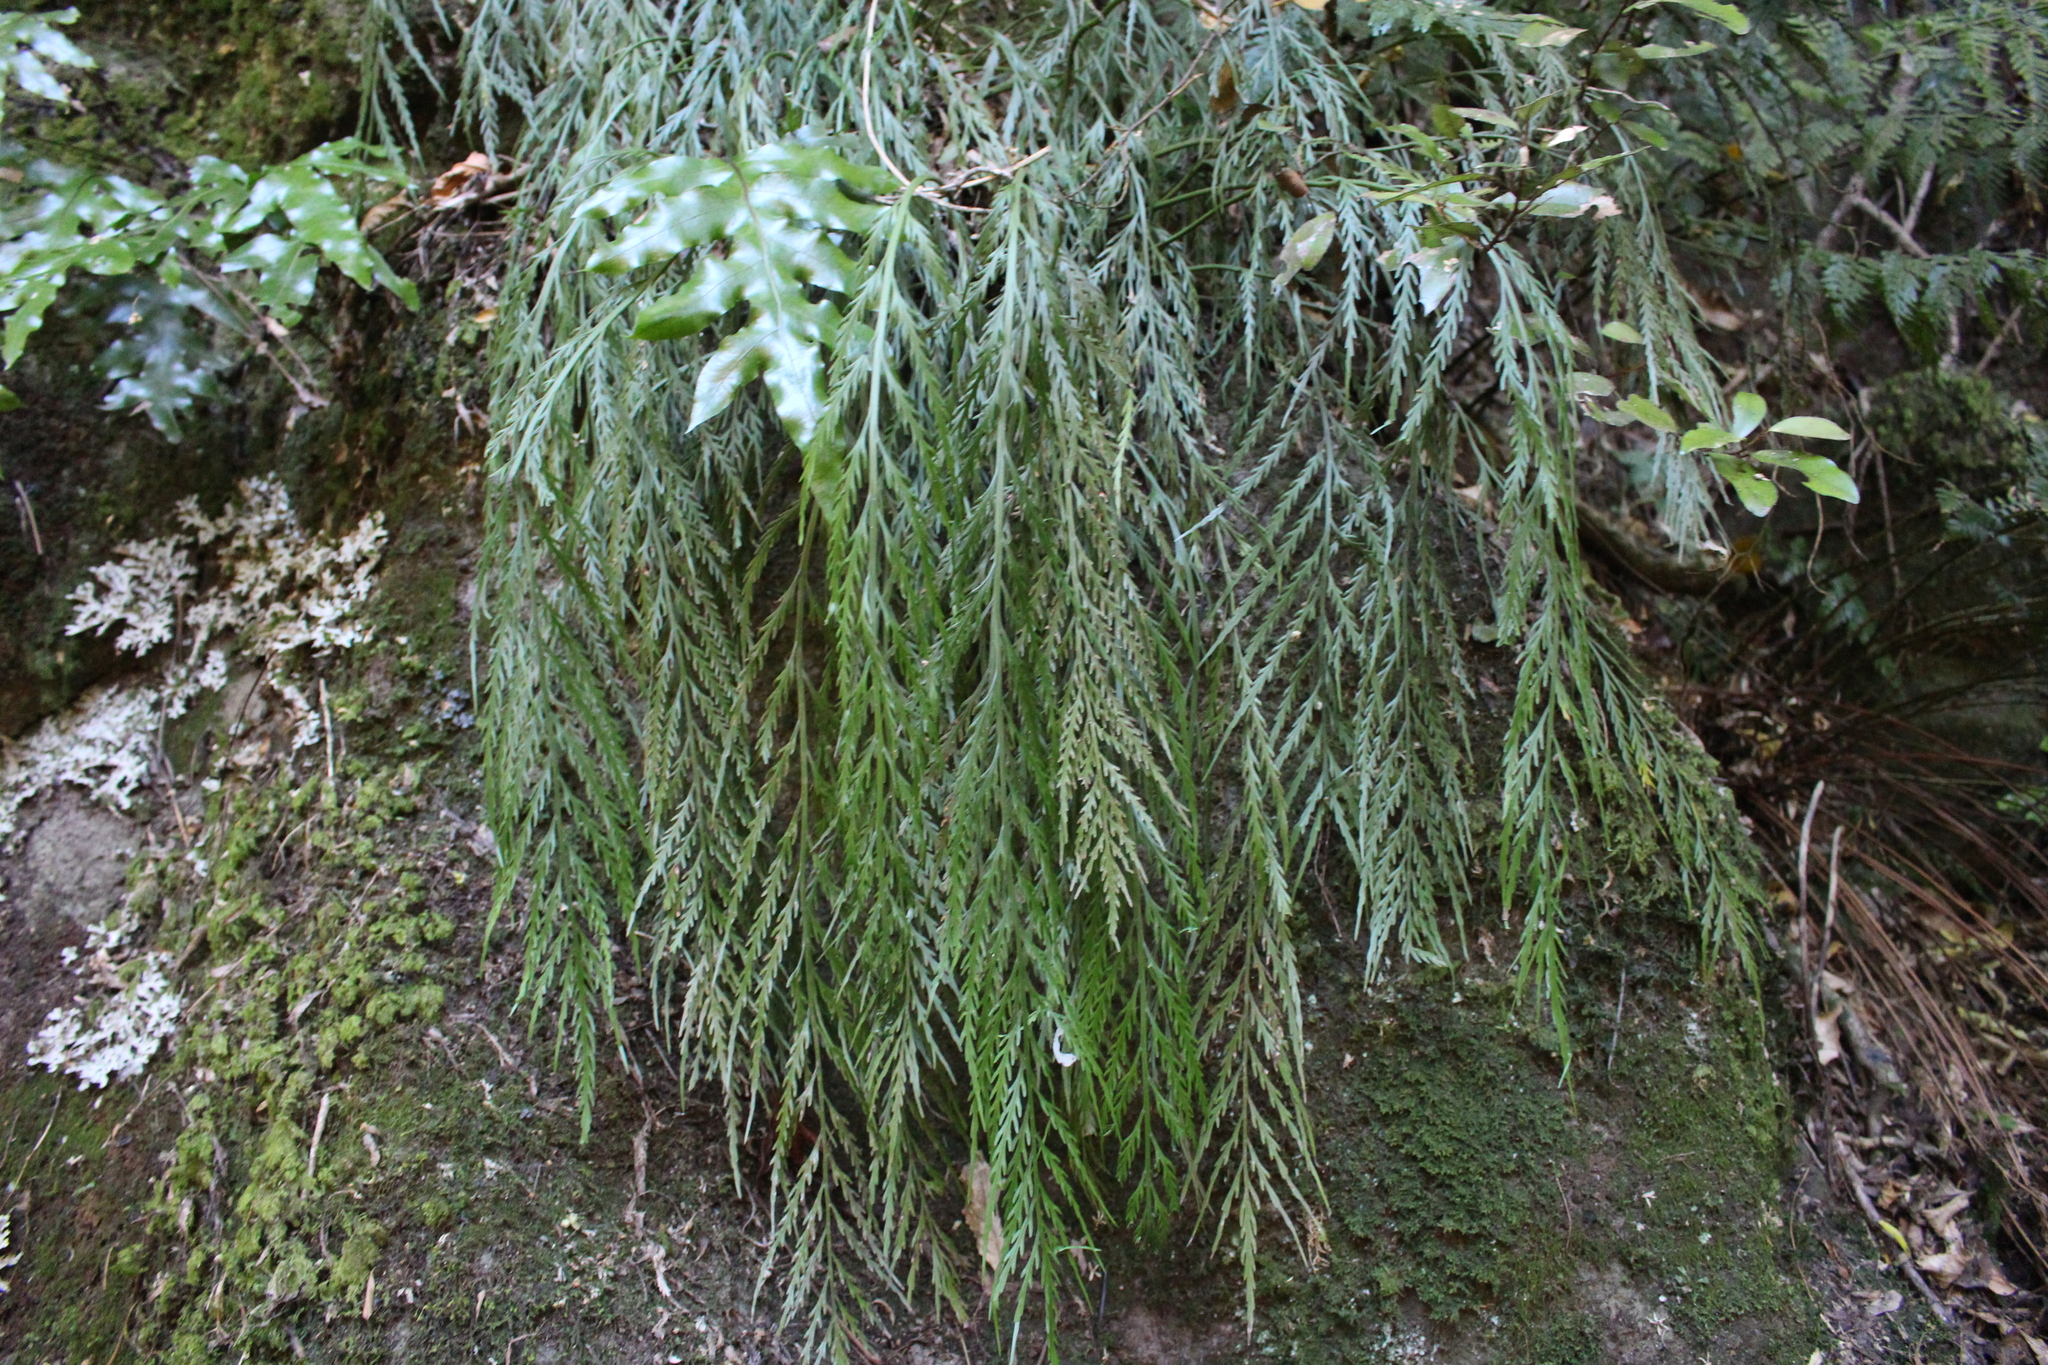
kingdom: Plantae
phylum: Tracheophyta
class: Polypodiopsida
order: Polypodiales
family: Aspleniaceae
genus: Asplenium
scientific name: Asplenium flaccidum
